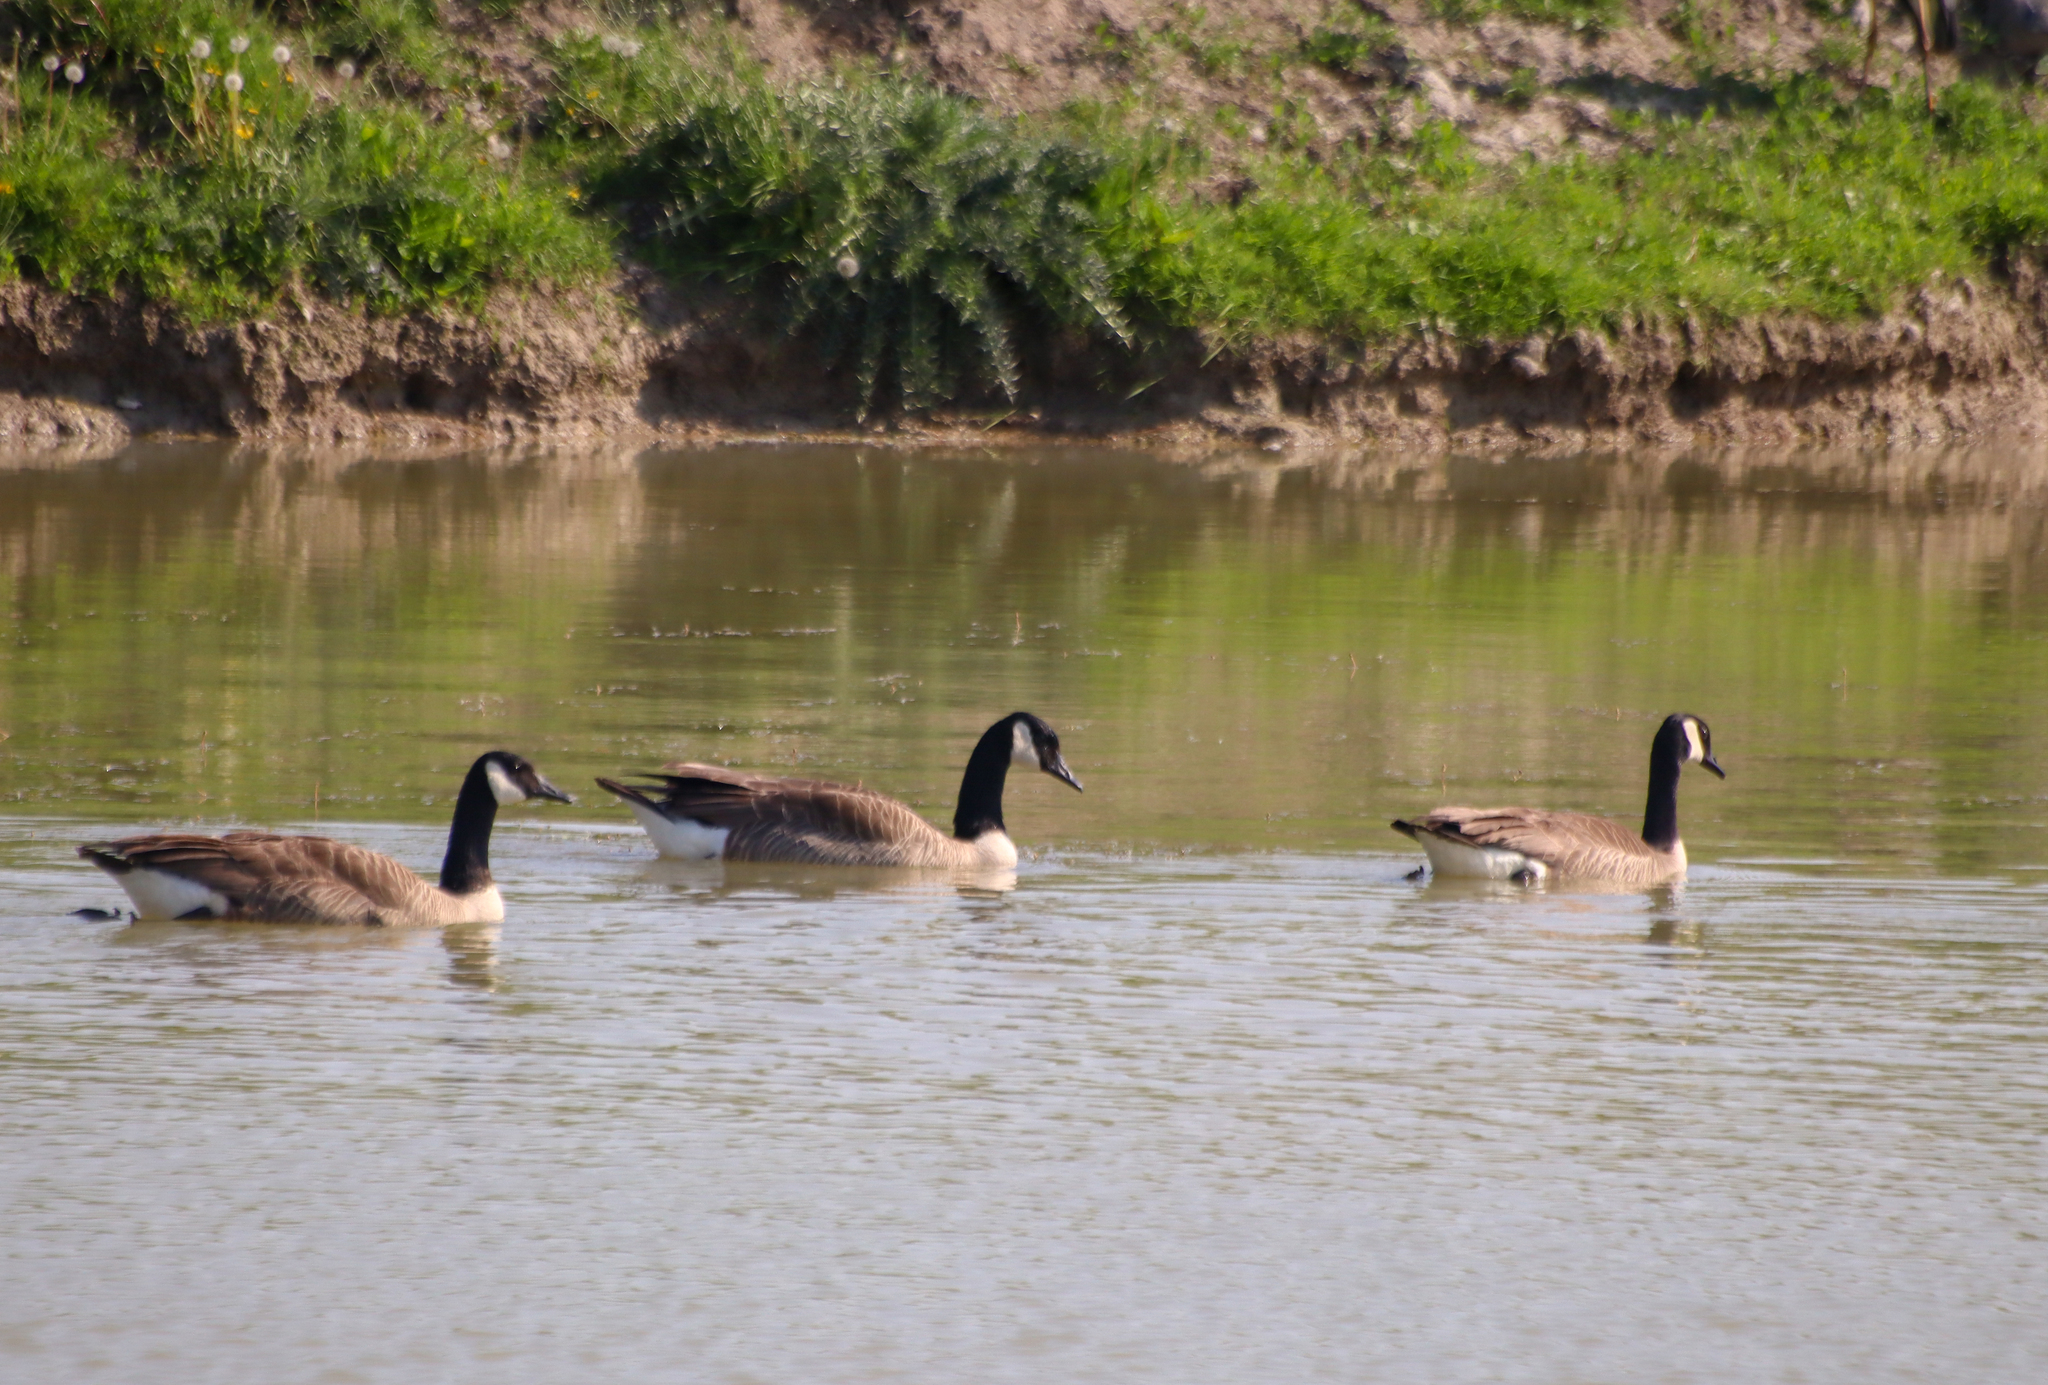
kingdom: Animalia
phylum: Chordata
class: Aves
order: Anseriformes
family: Anatidae
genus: Branta
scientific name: Branta canadensis
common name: Canada goose
